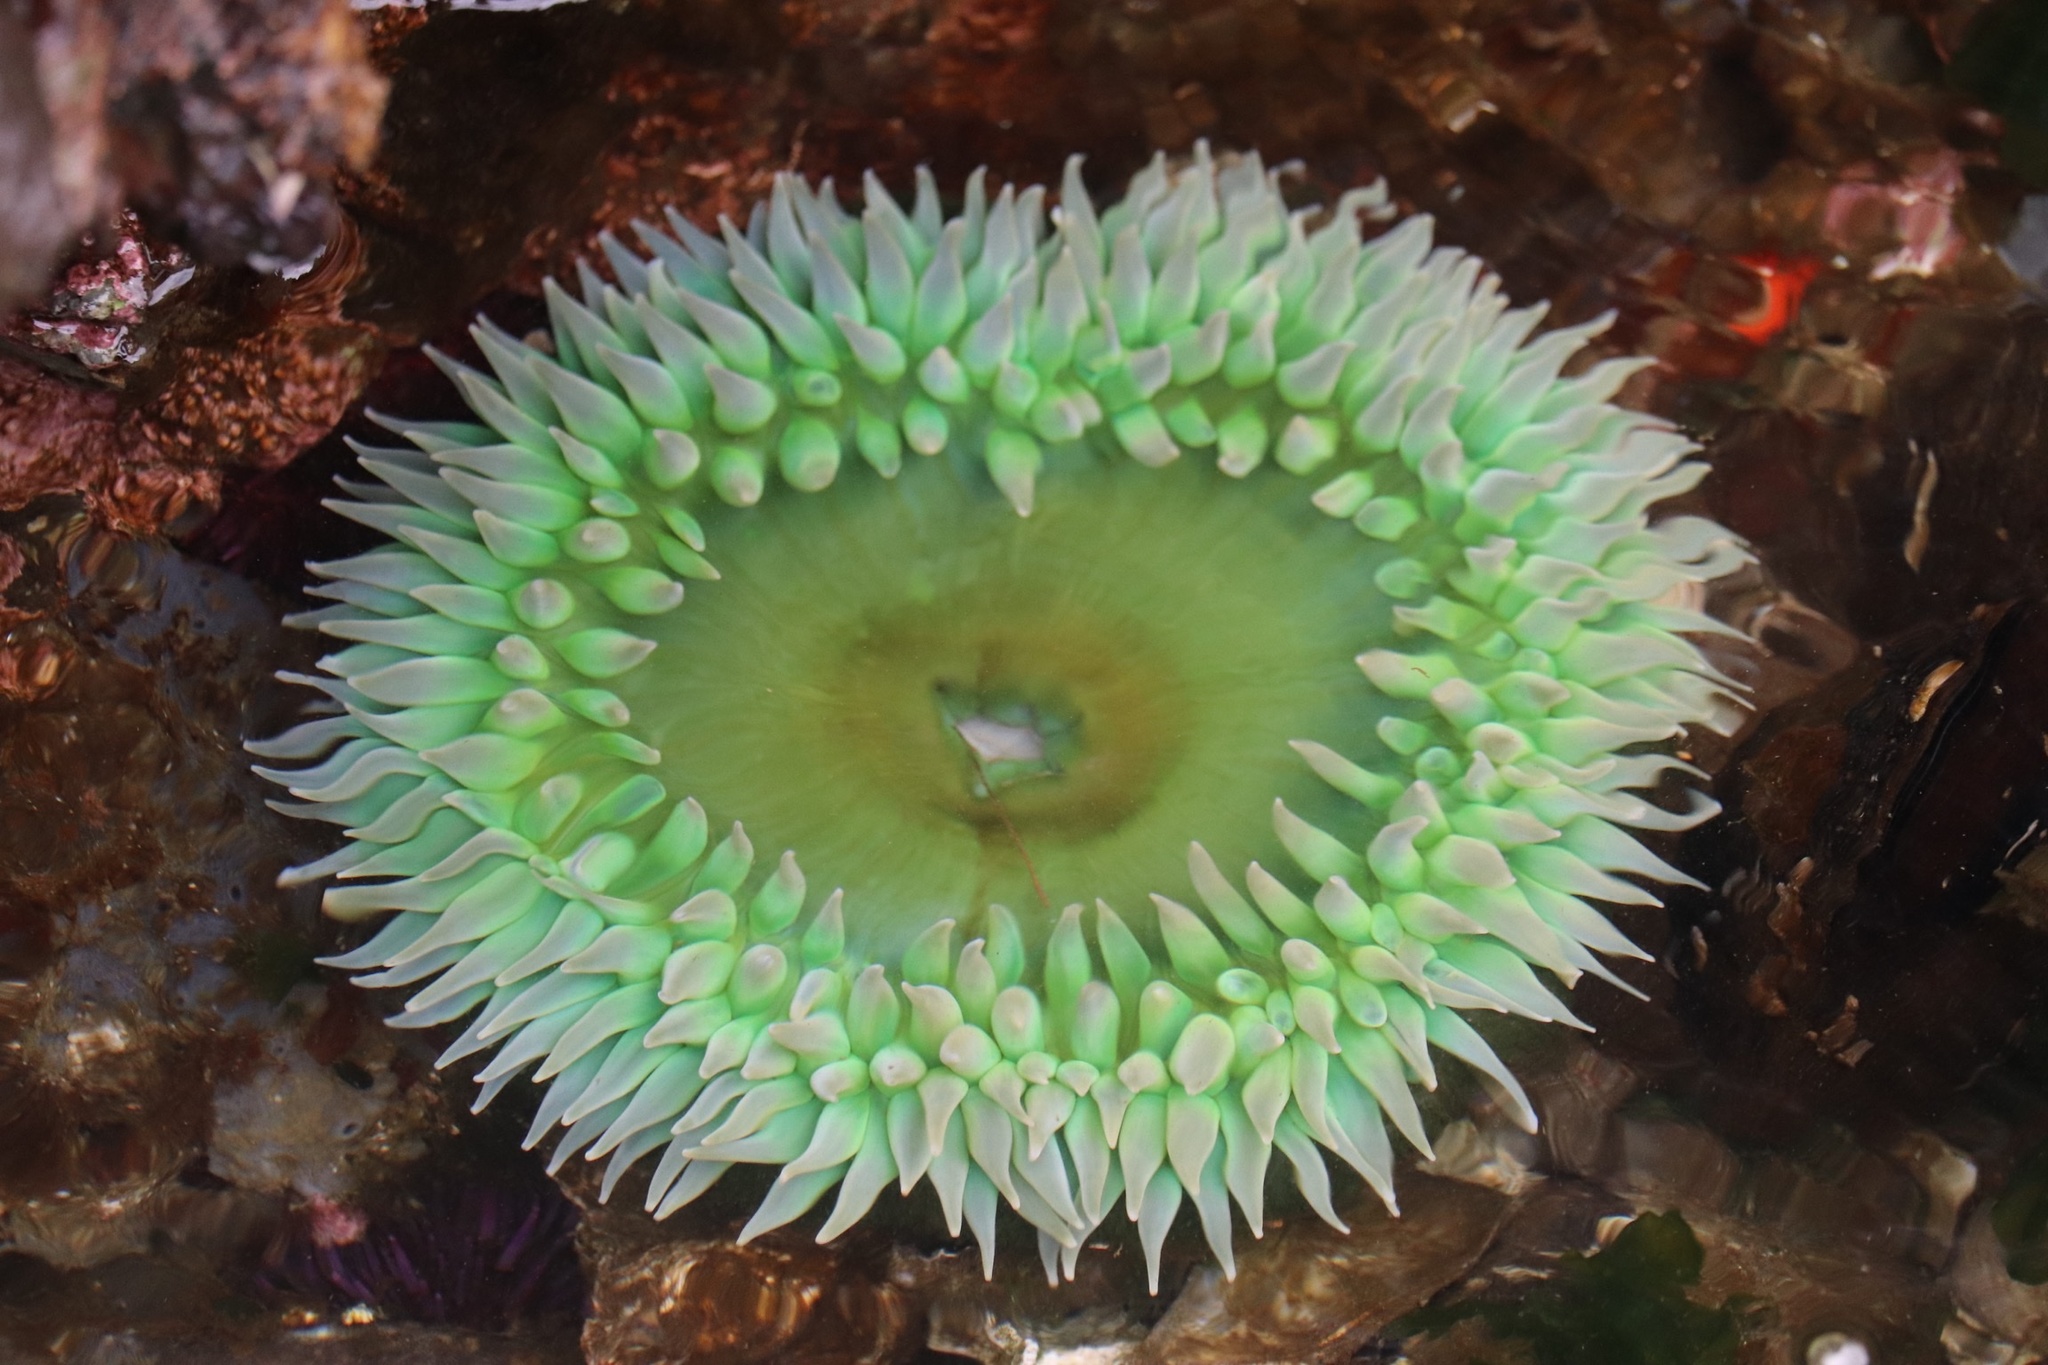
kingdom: Animalia
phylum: Cnidaria
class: Anthozoa
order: Actiniaria
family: Actiniidae
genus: Anthopleura
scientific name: Anthopleura xanthogrammica
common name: Giant green anemone
